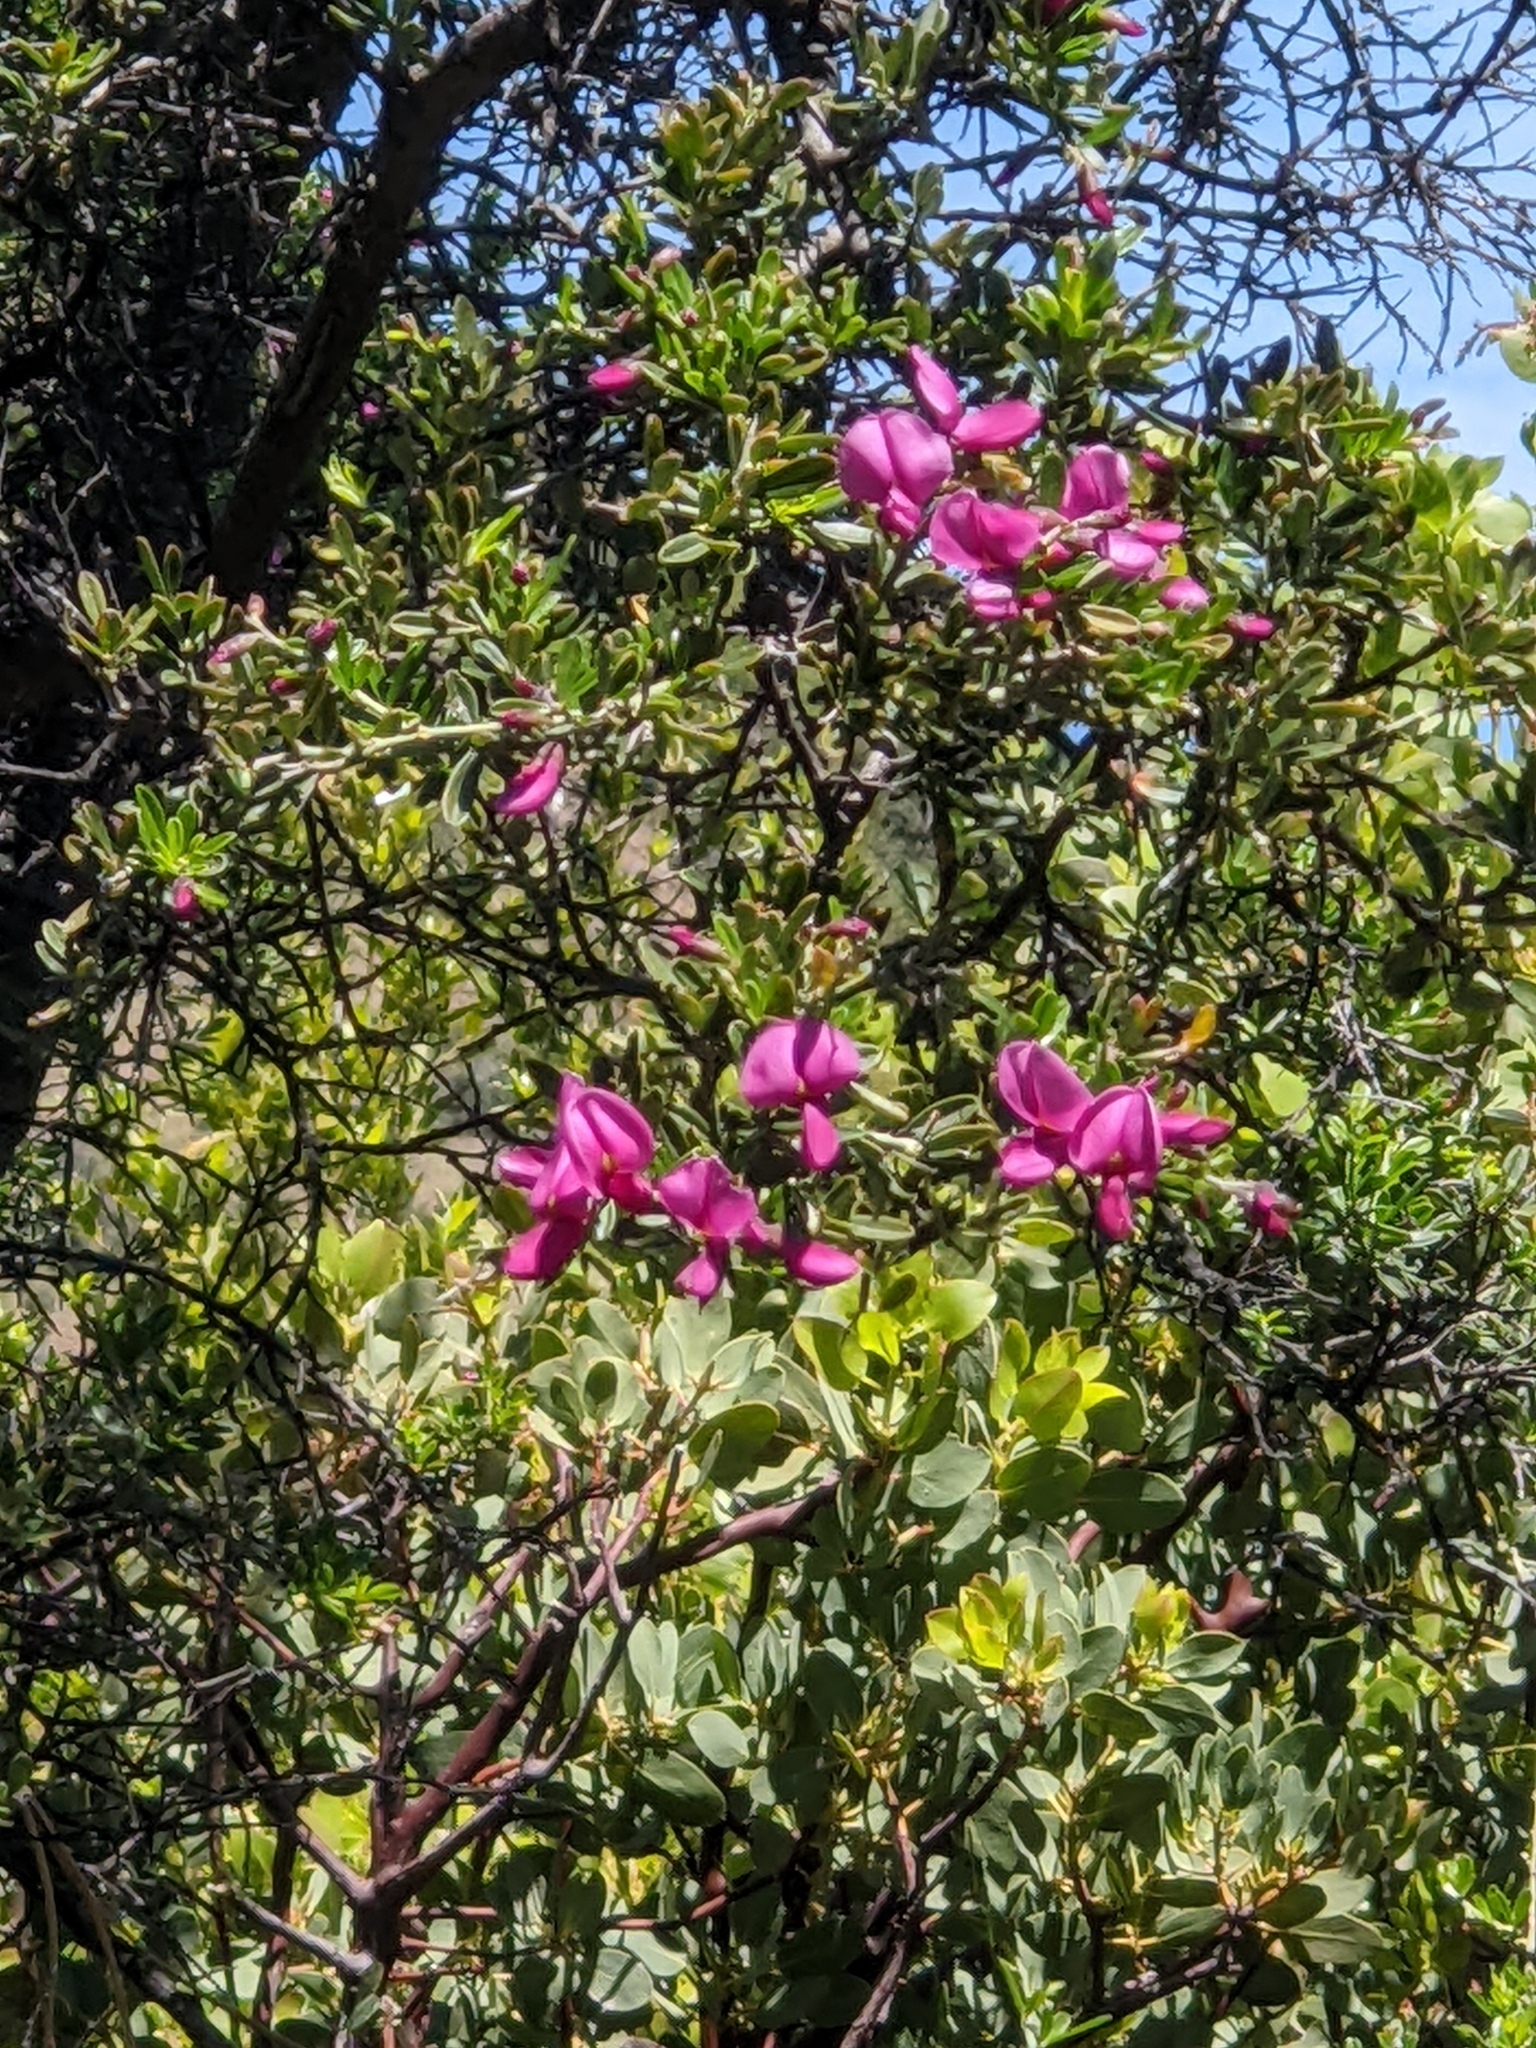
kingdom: Plantae
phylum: Tracheophyta
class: Magnoliopsida
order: Fabales
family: Fabaceae
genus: Pickeringia
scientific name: Pickeringia montana
